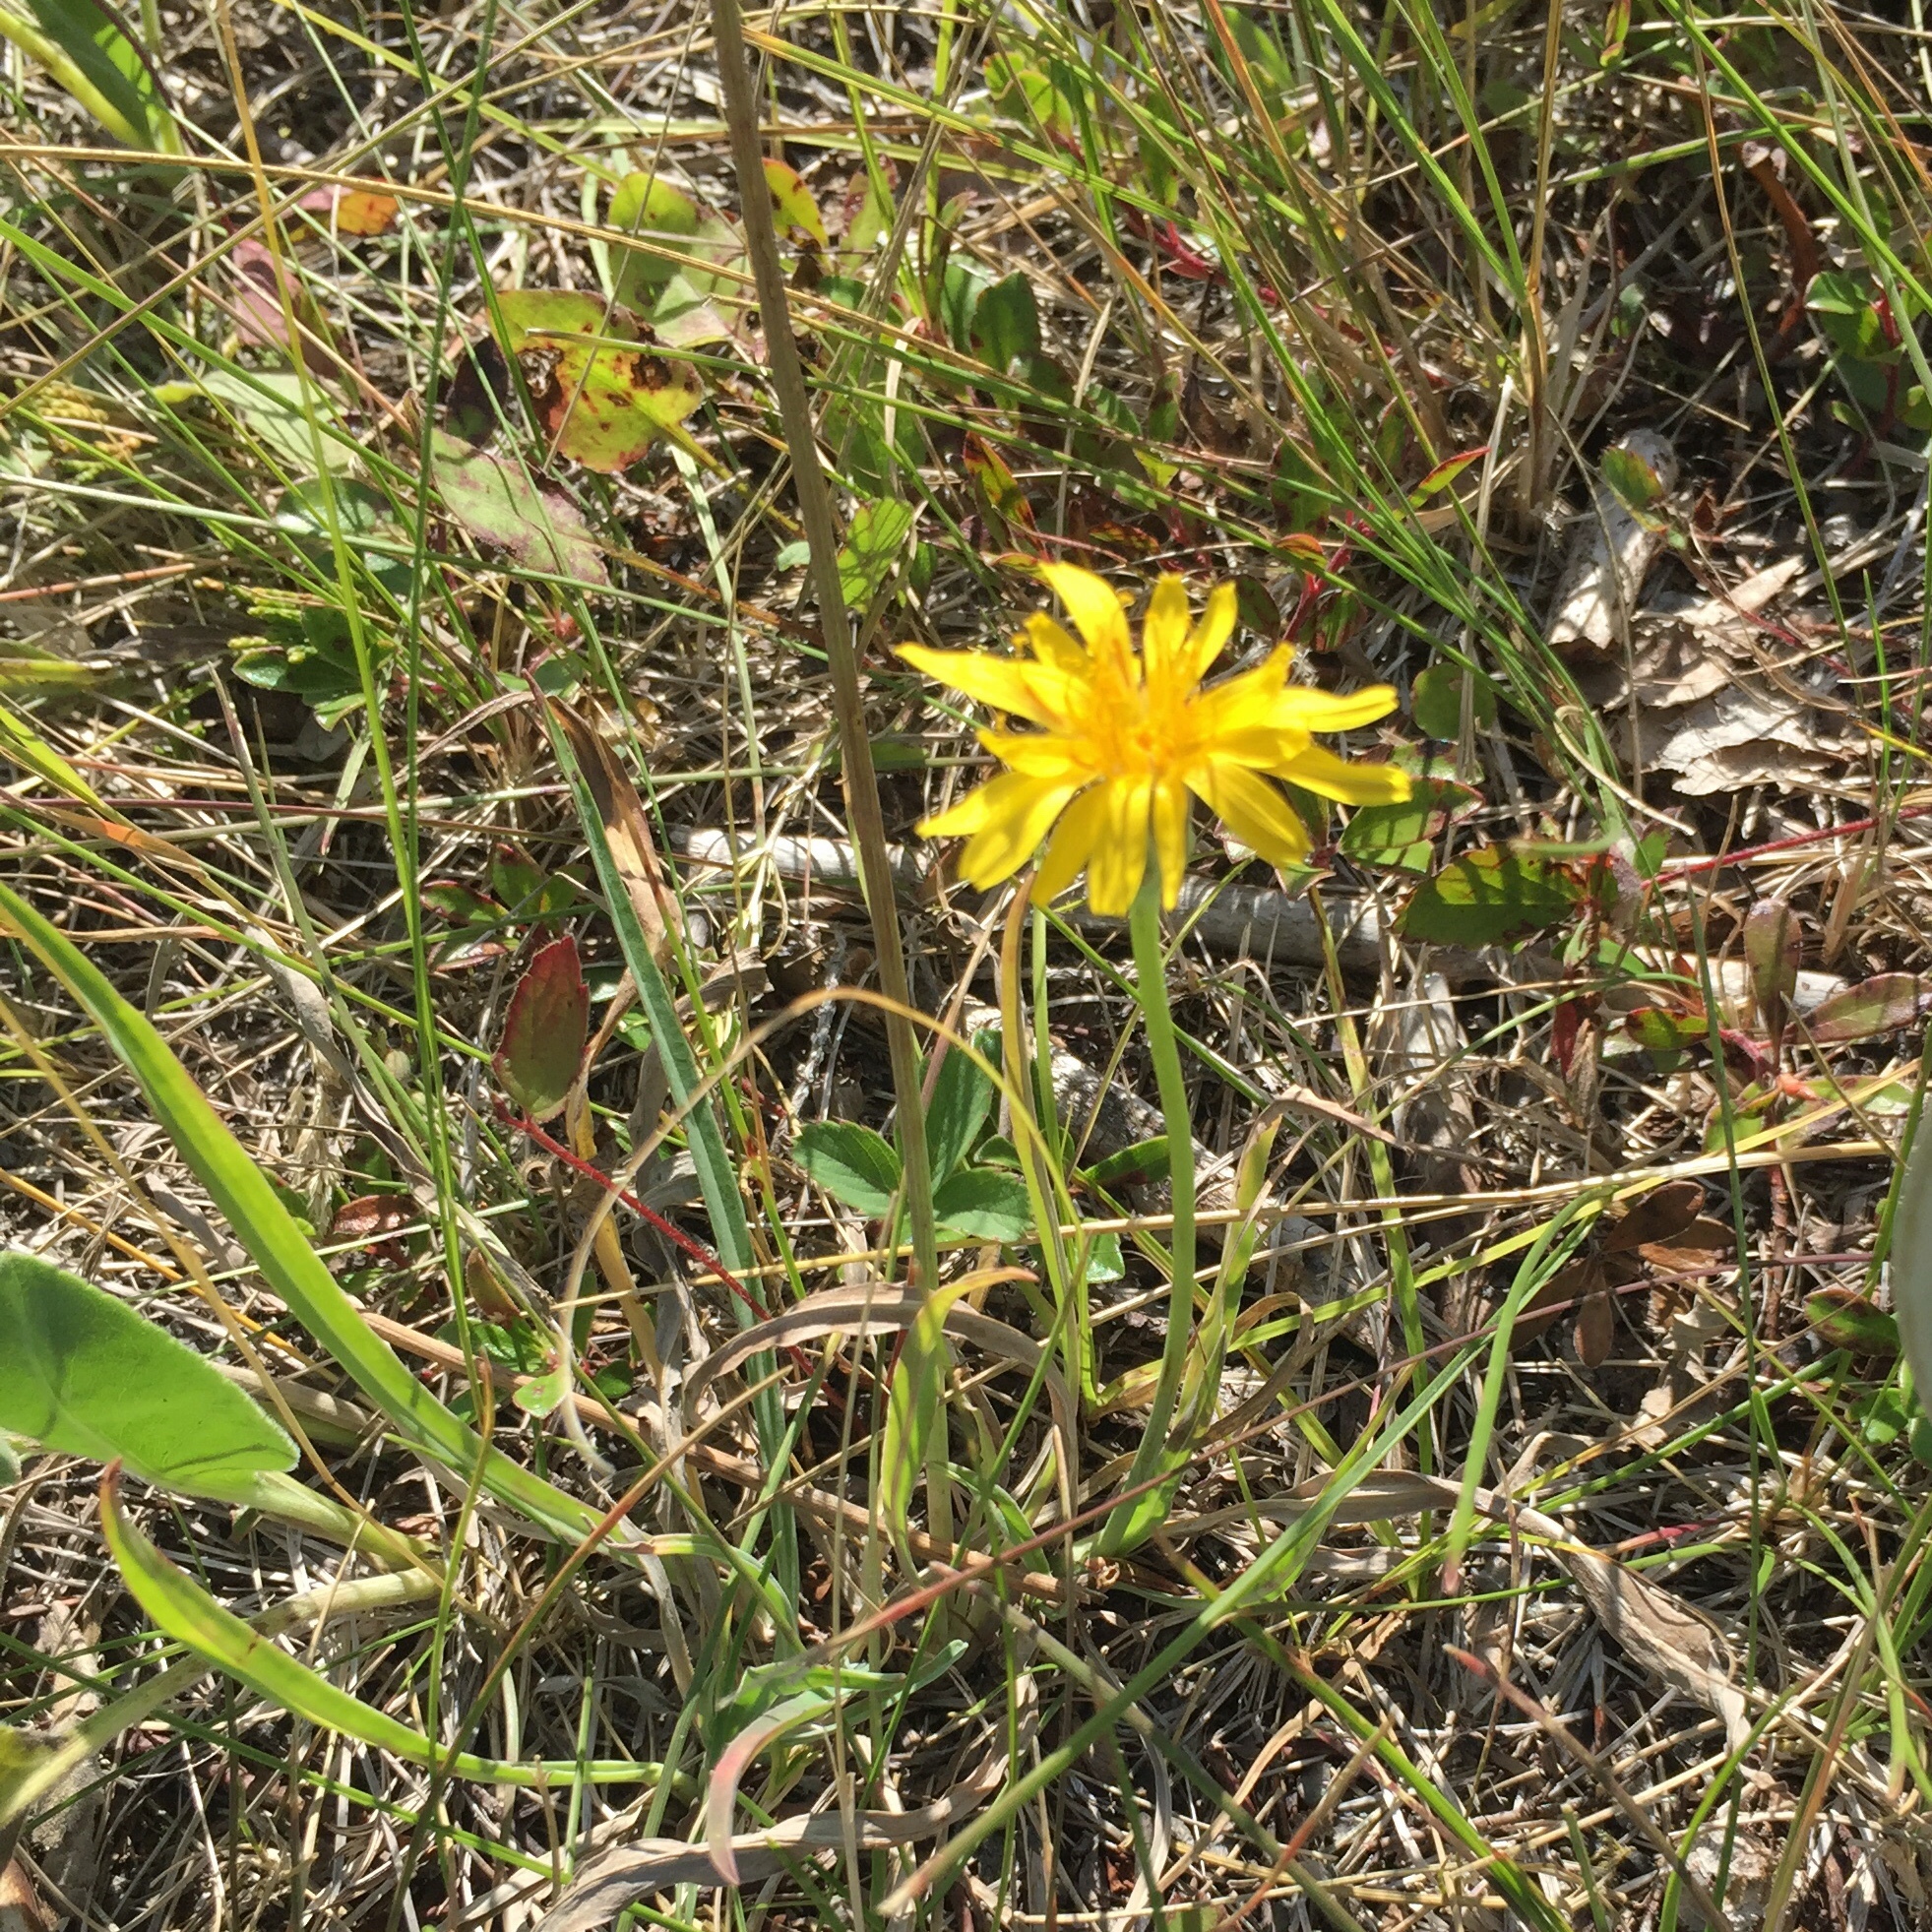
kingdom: Plantae
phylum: Tracheophyta
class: Magnoliopsida
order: Asterales
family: Asteraceae
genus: Agoseris
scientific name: Agoseris glauca
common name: Prairie agoseris
